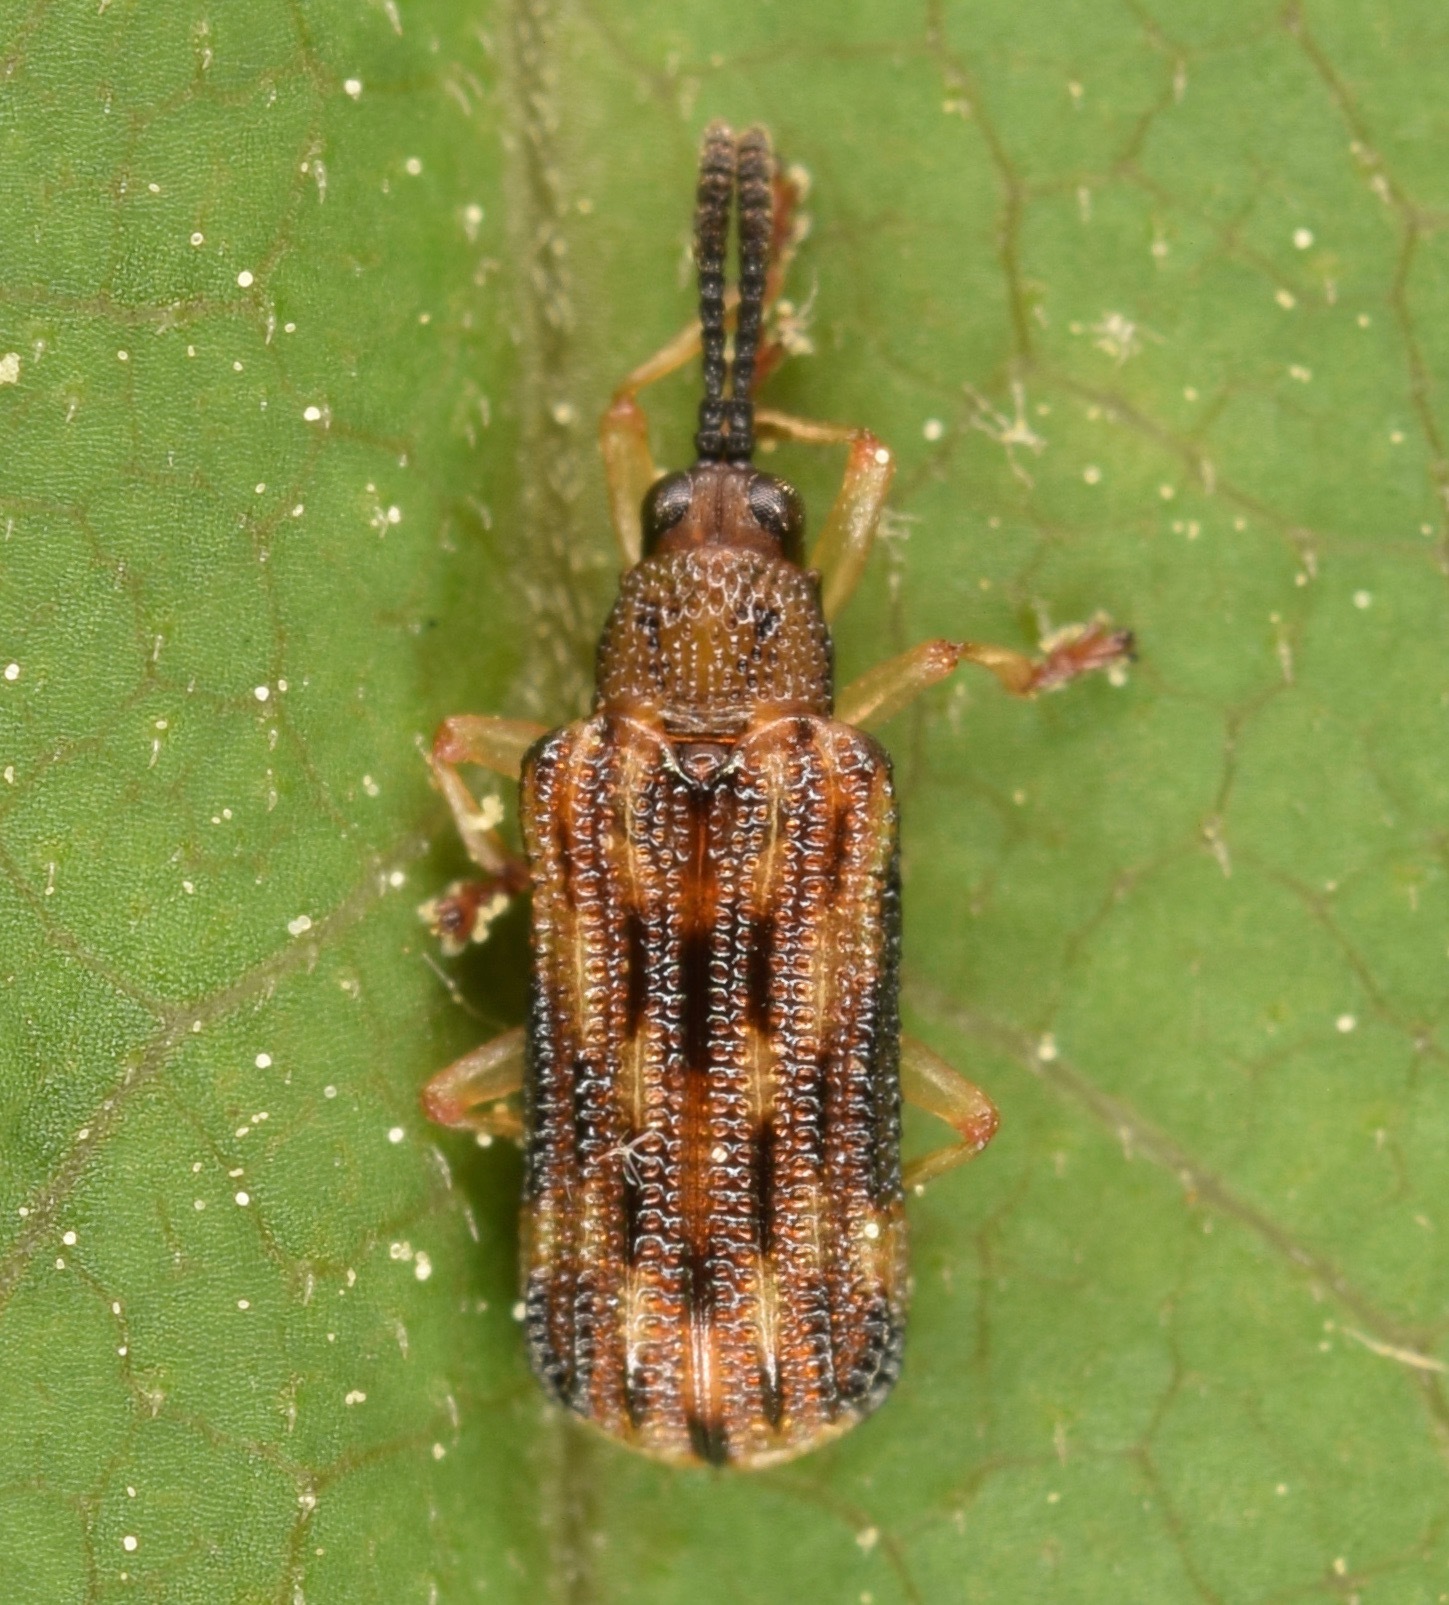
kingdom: Animalia
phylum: Arthropoda
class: Insecta
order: Coleoptera
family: Chrysomelidae
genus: Sumitrosis
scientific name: Sumitrosis inaequalis
